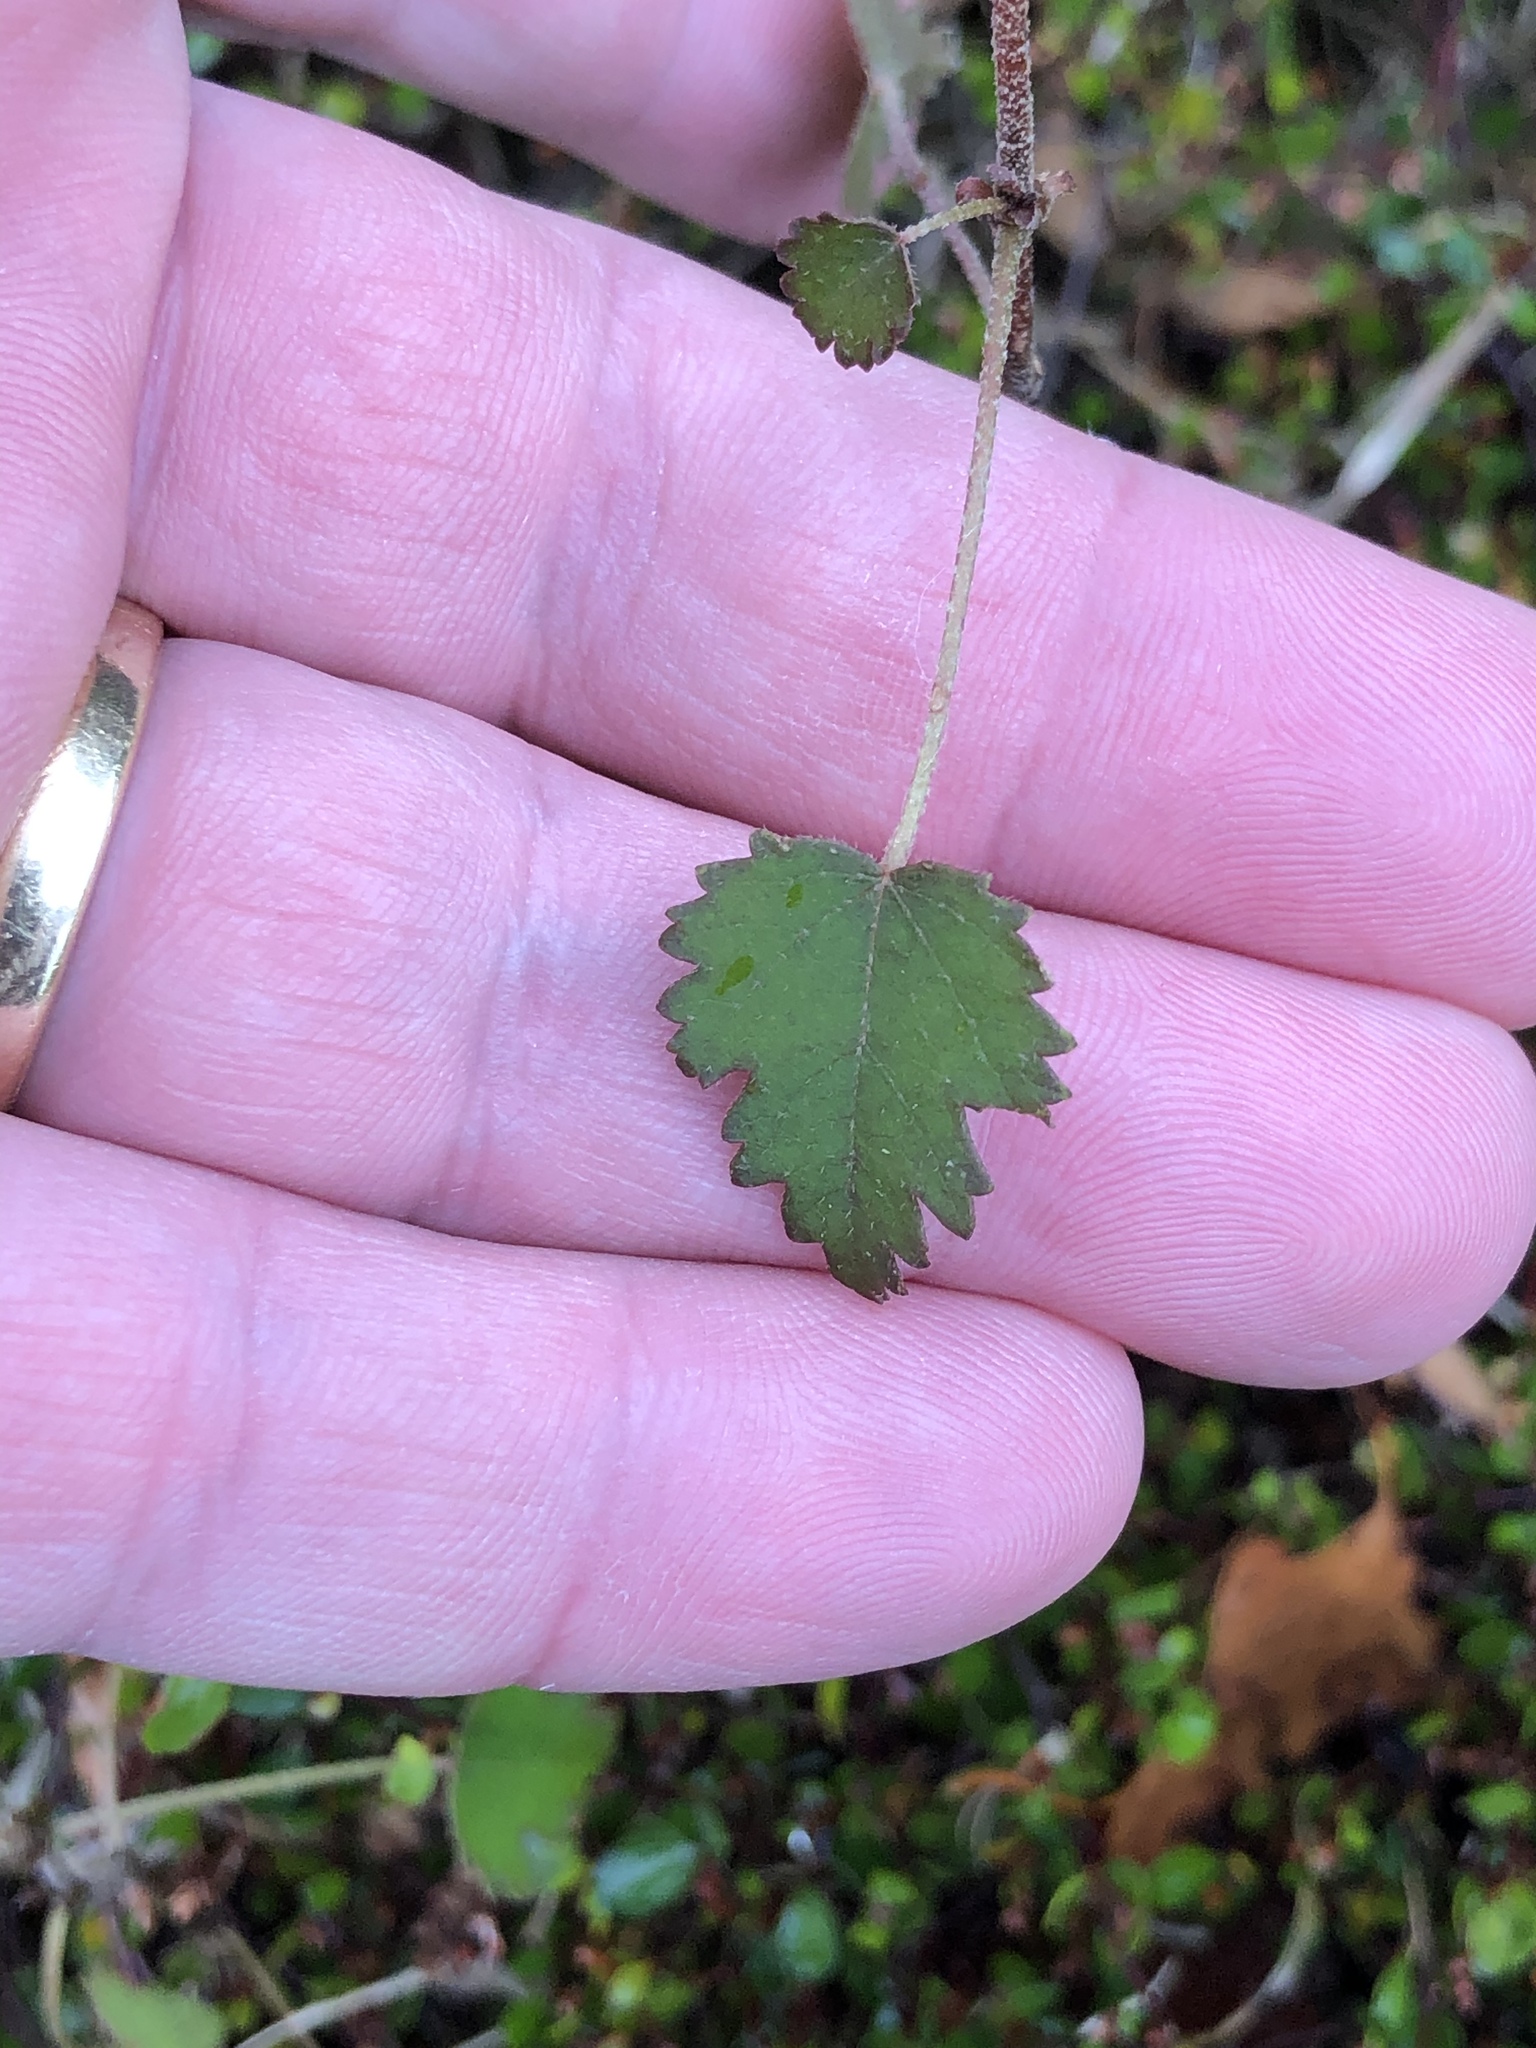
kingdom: Plantae
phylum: Tracheophyta
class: Magnoliopsida
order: Malvales
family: Malvaceae
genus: Plagianthus
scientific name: Plagianthus regius
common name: Manatu
